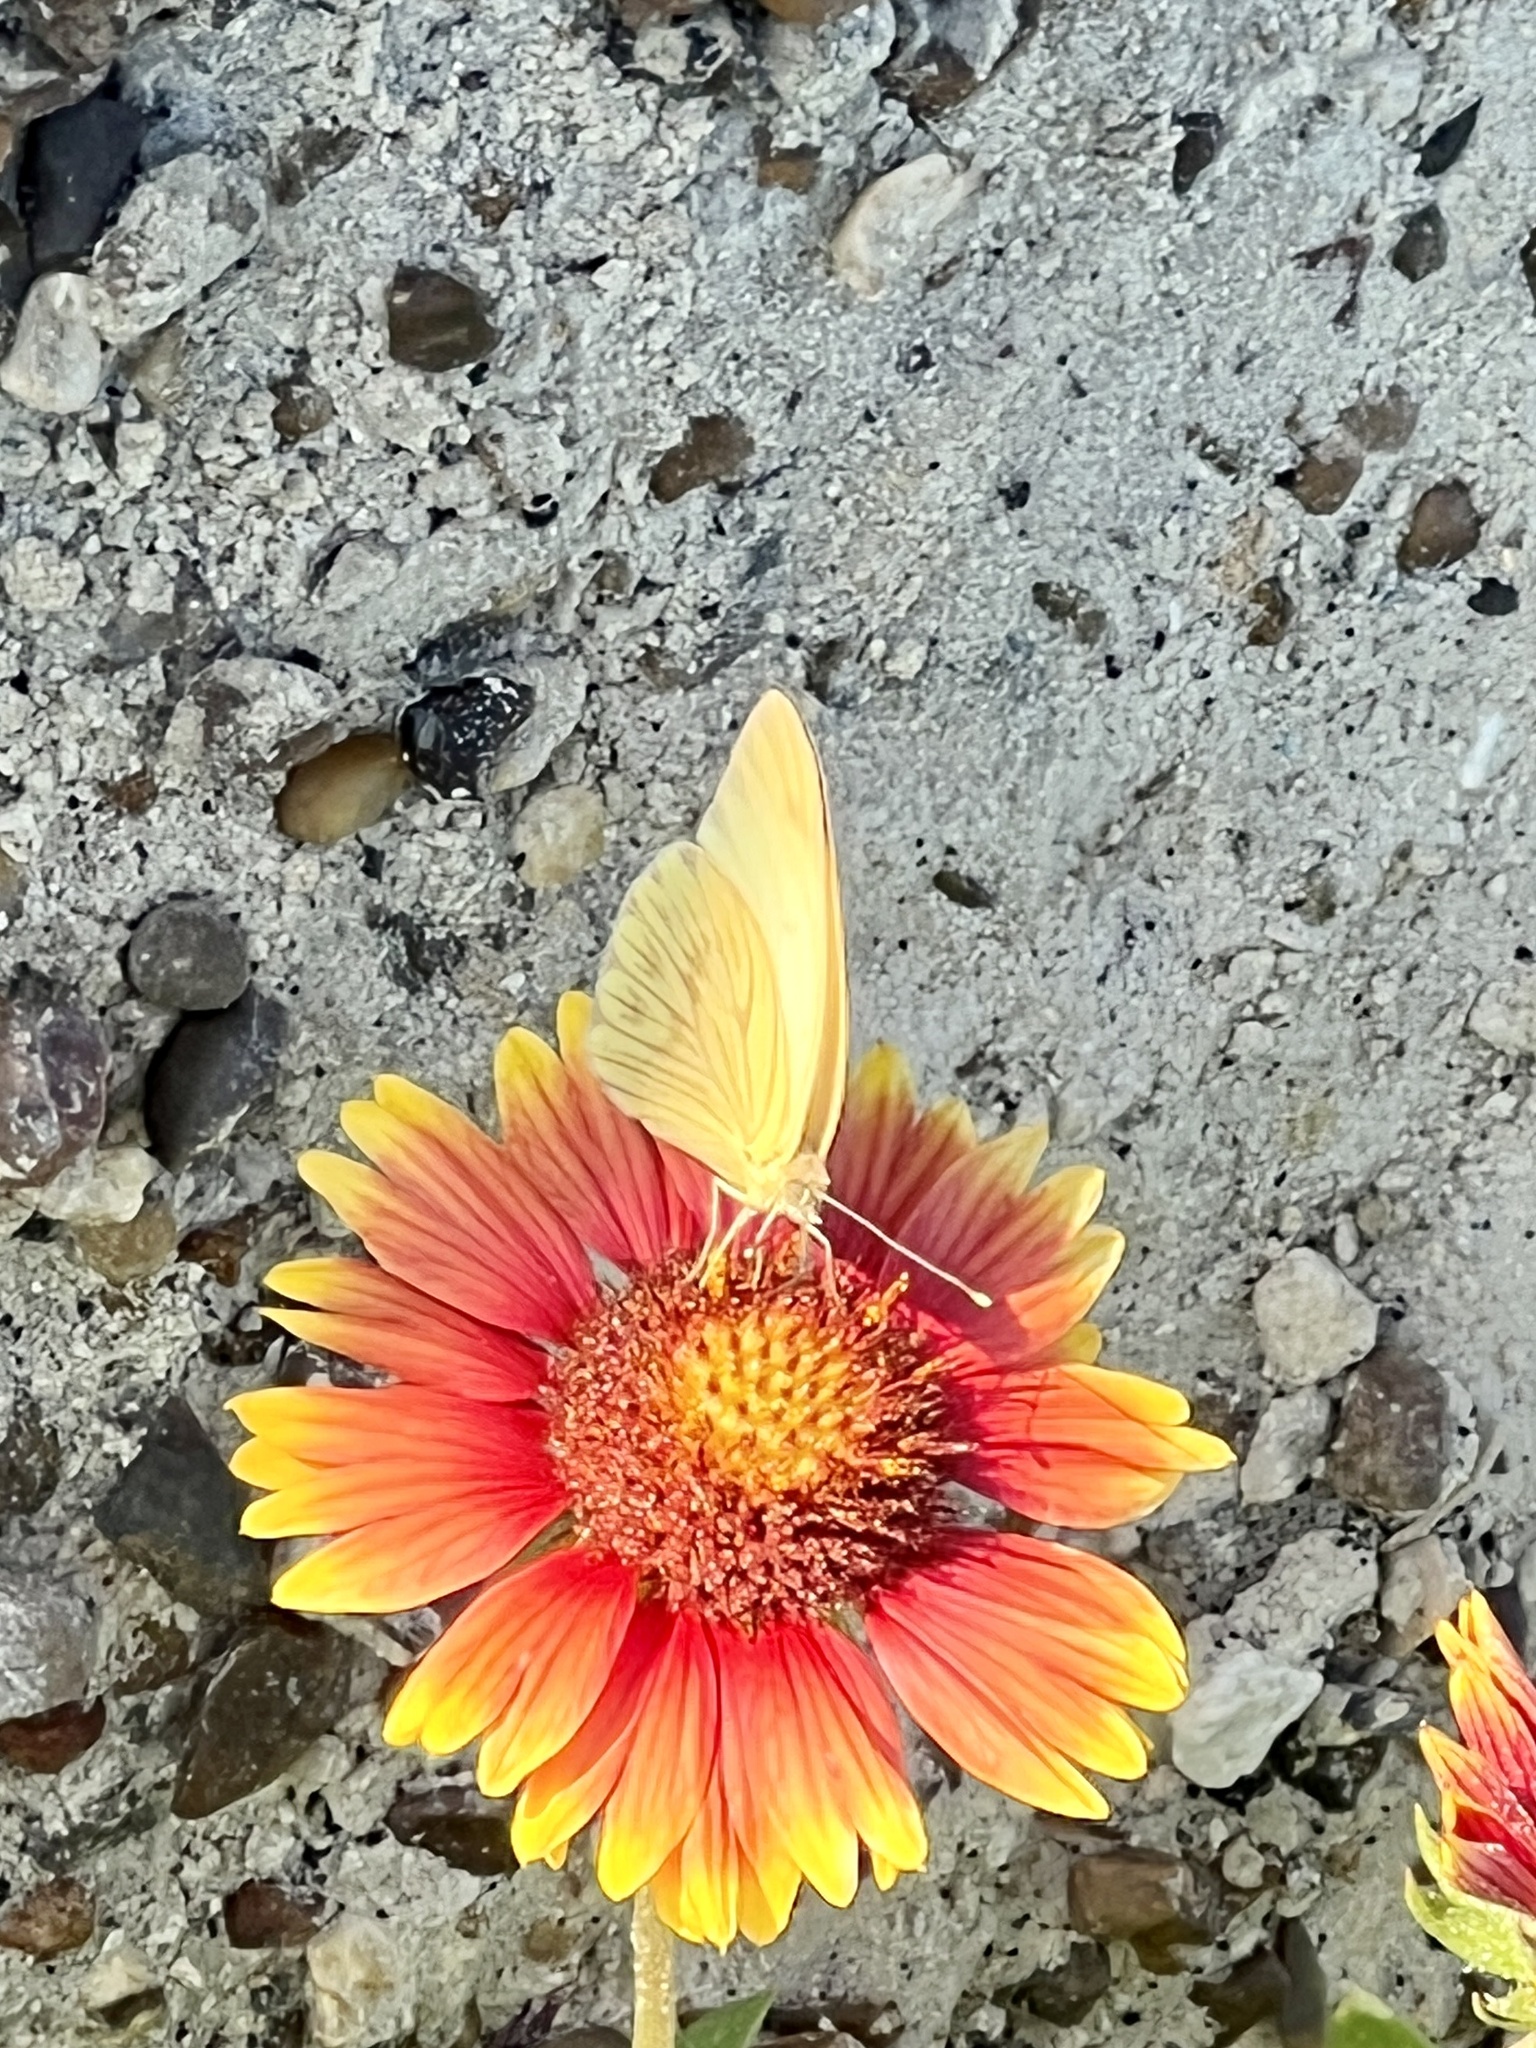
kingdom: Animalia
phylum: Arthropoda
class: Insecta
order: Lepidoptera
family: Pieridae
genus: Ascia
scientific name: Ascia monuste
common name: Great southern white
